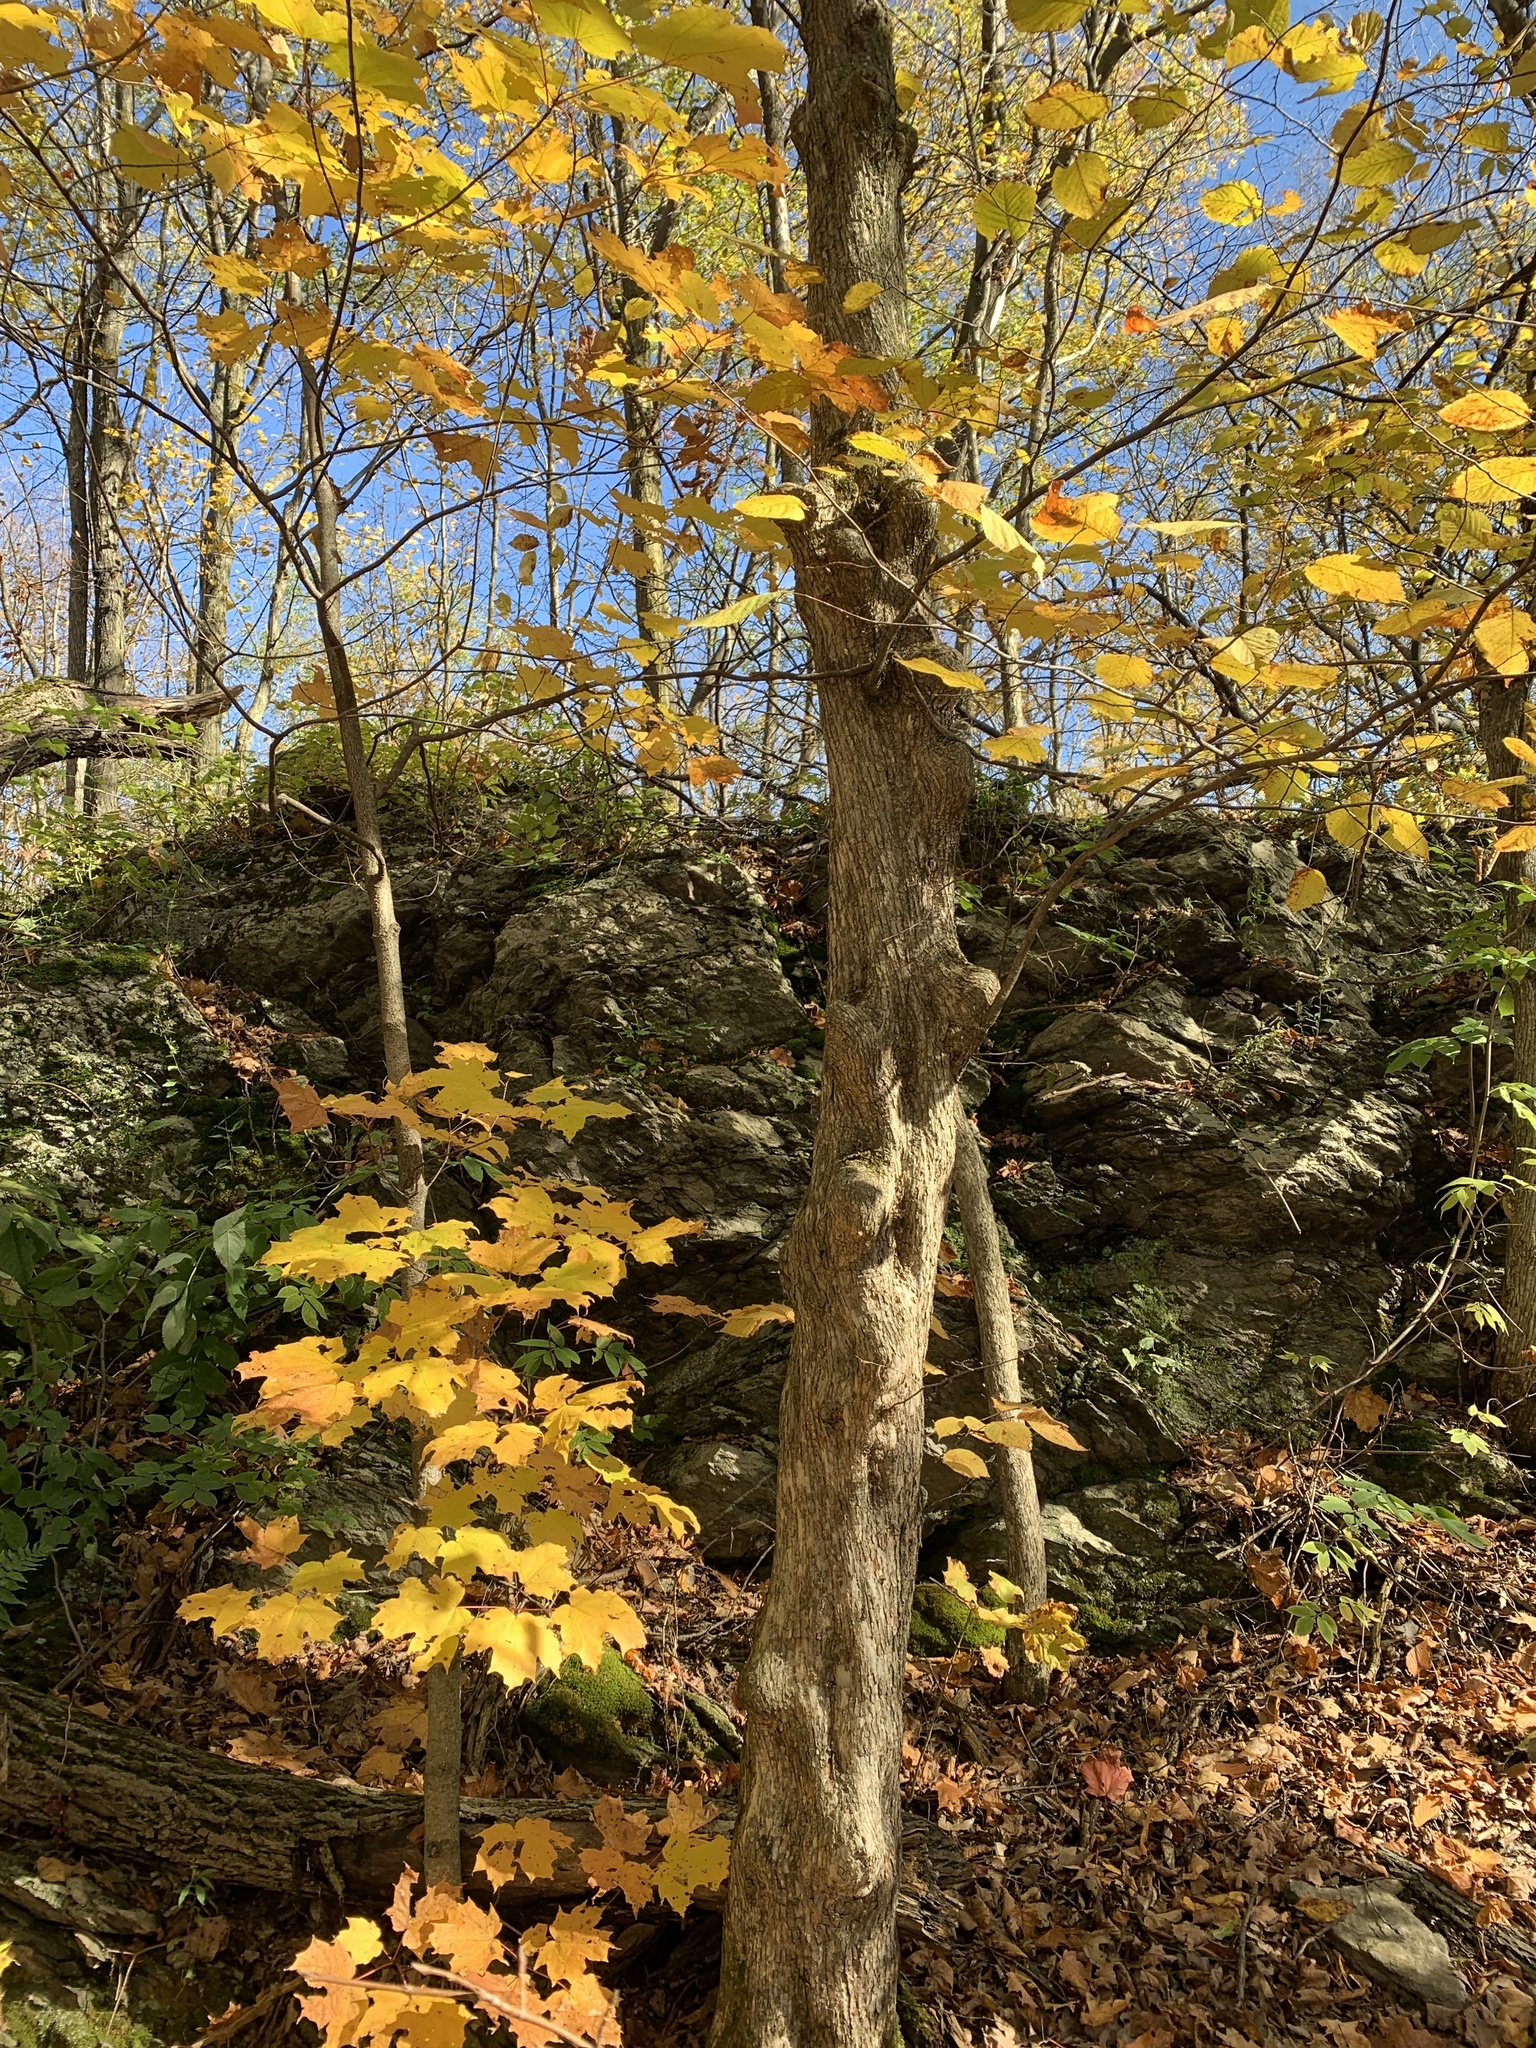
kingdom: Plantae
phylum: Tracheophyta
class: Magnoliopsida
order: Fagales
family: Betulaceae
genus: Ostrya
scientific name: Ostrya virginiana
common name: Ironwood
